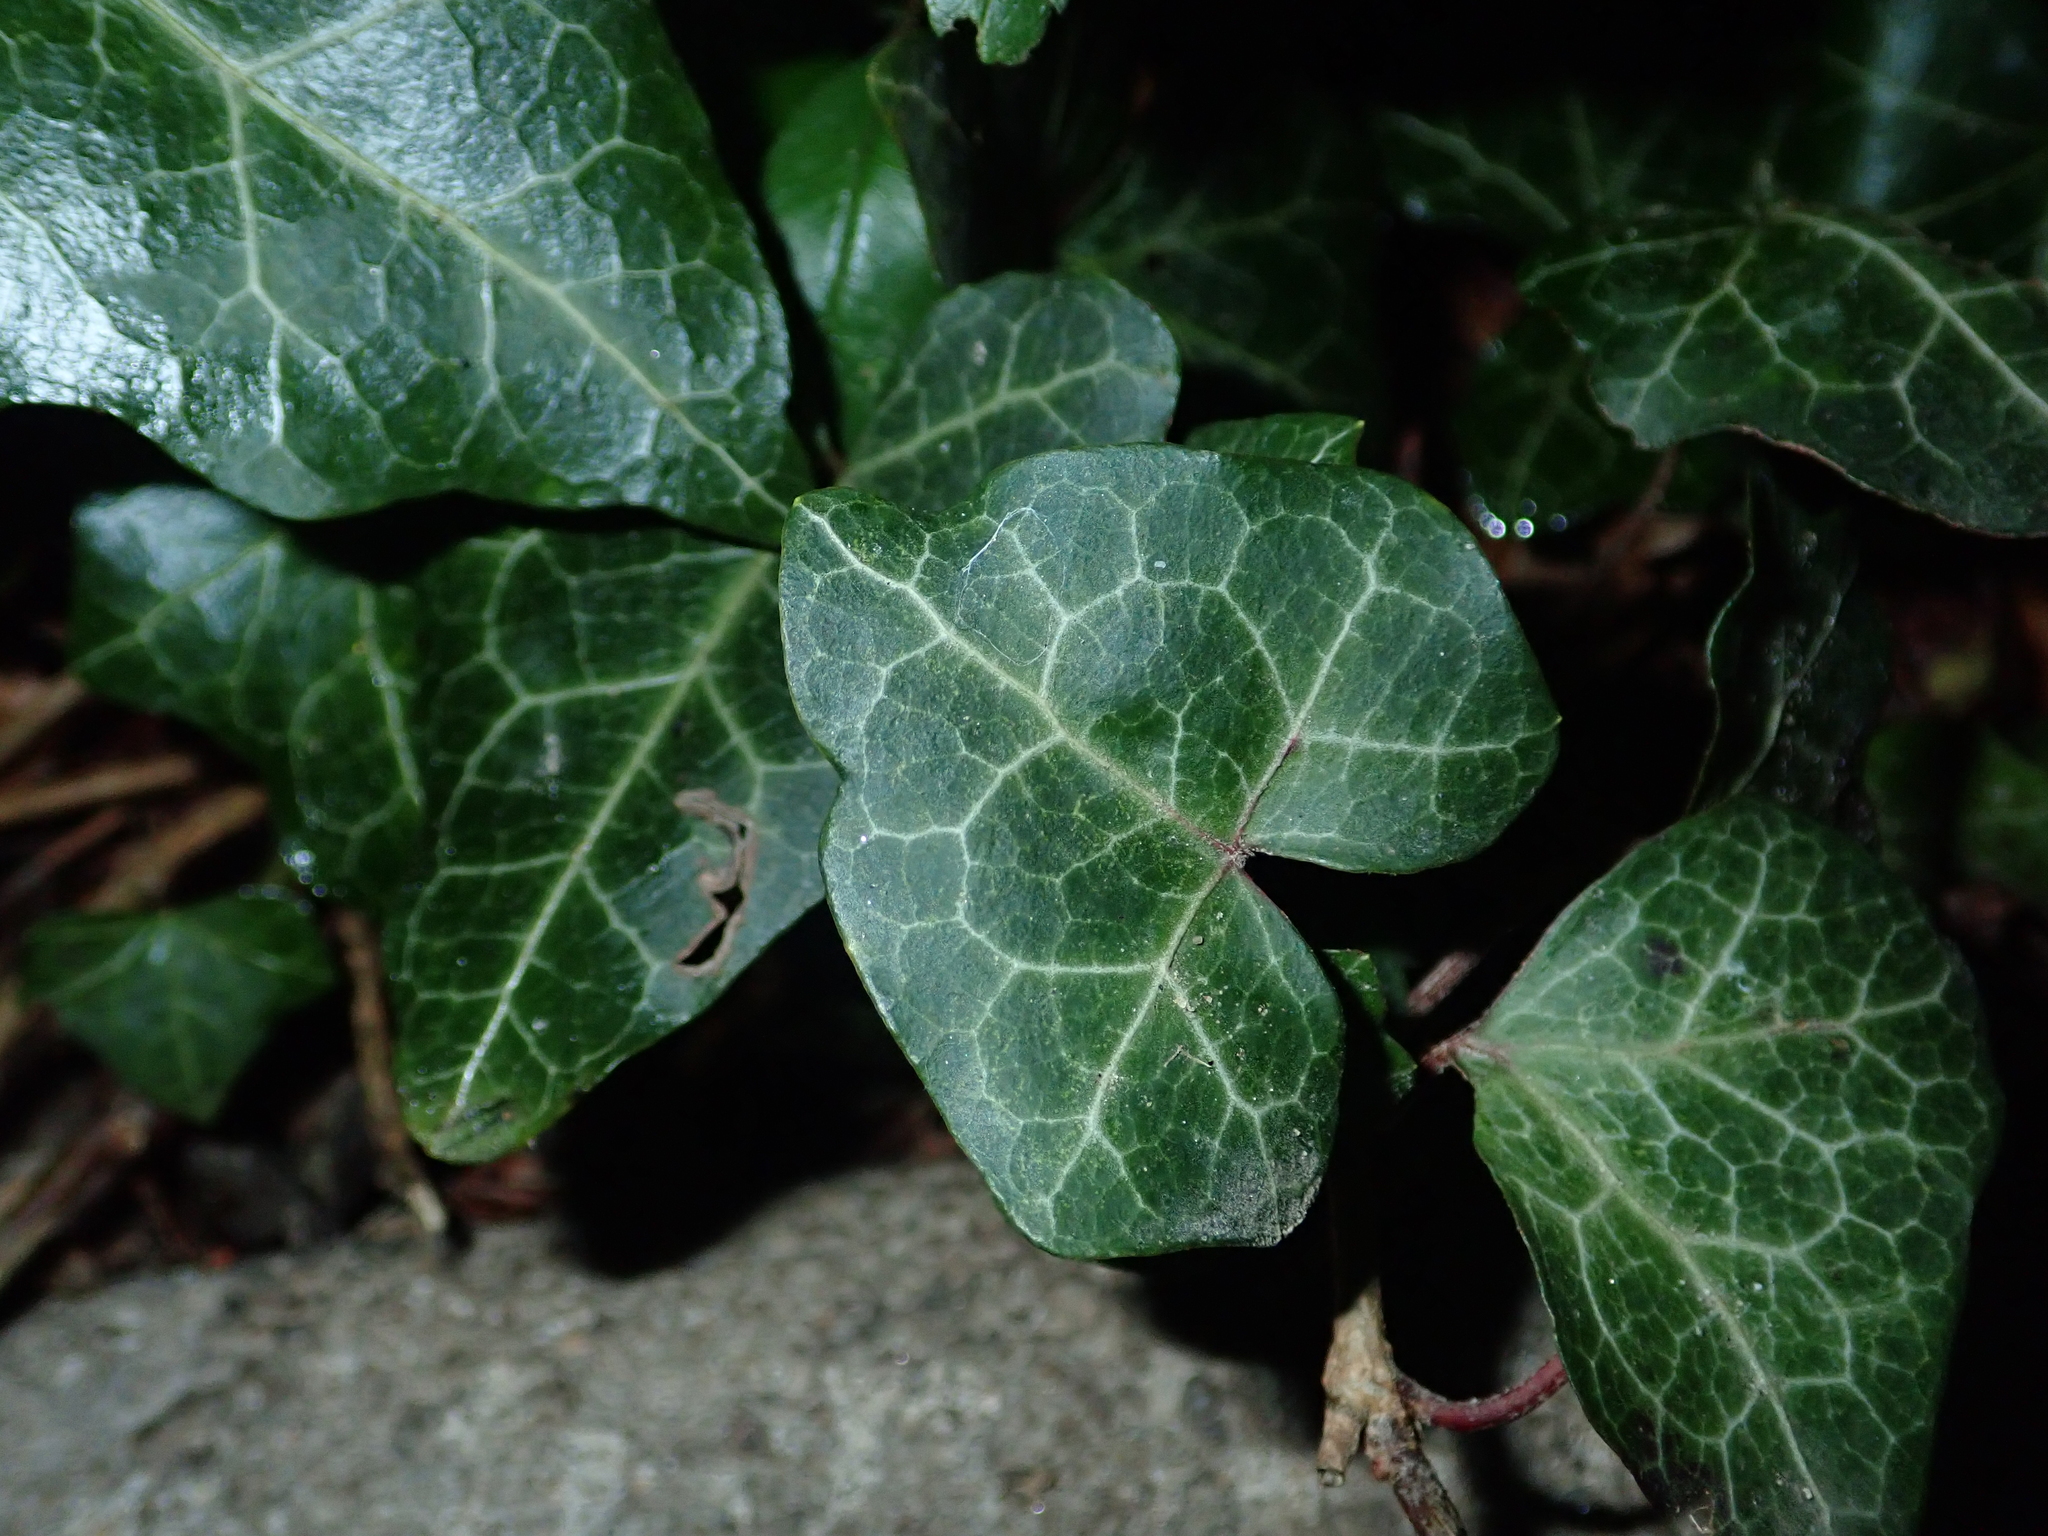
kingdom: Plantae
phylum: Tracheophyta
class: Magnoliopsida
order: Apiales
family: Araliaceae
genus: Hedera
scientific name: Hedera helix
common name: Ivy
